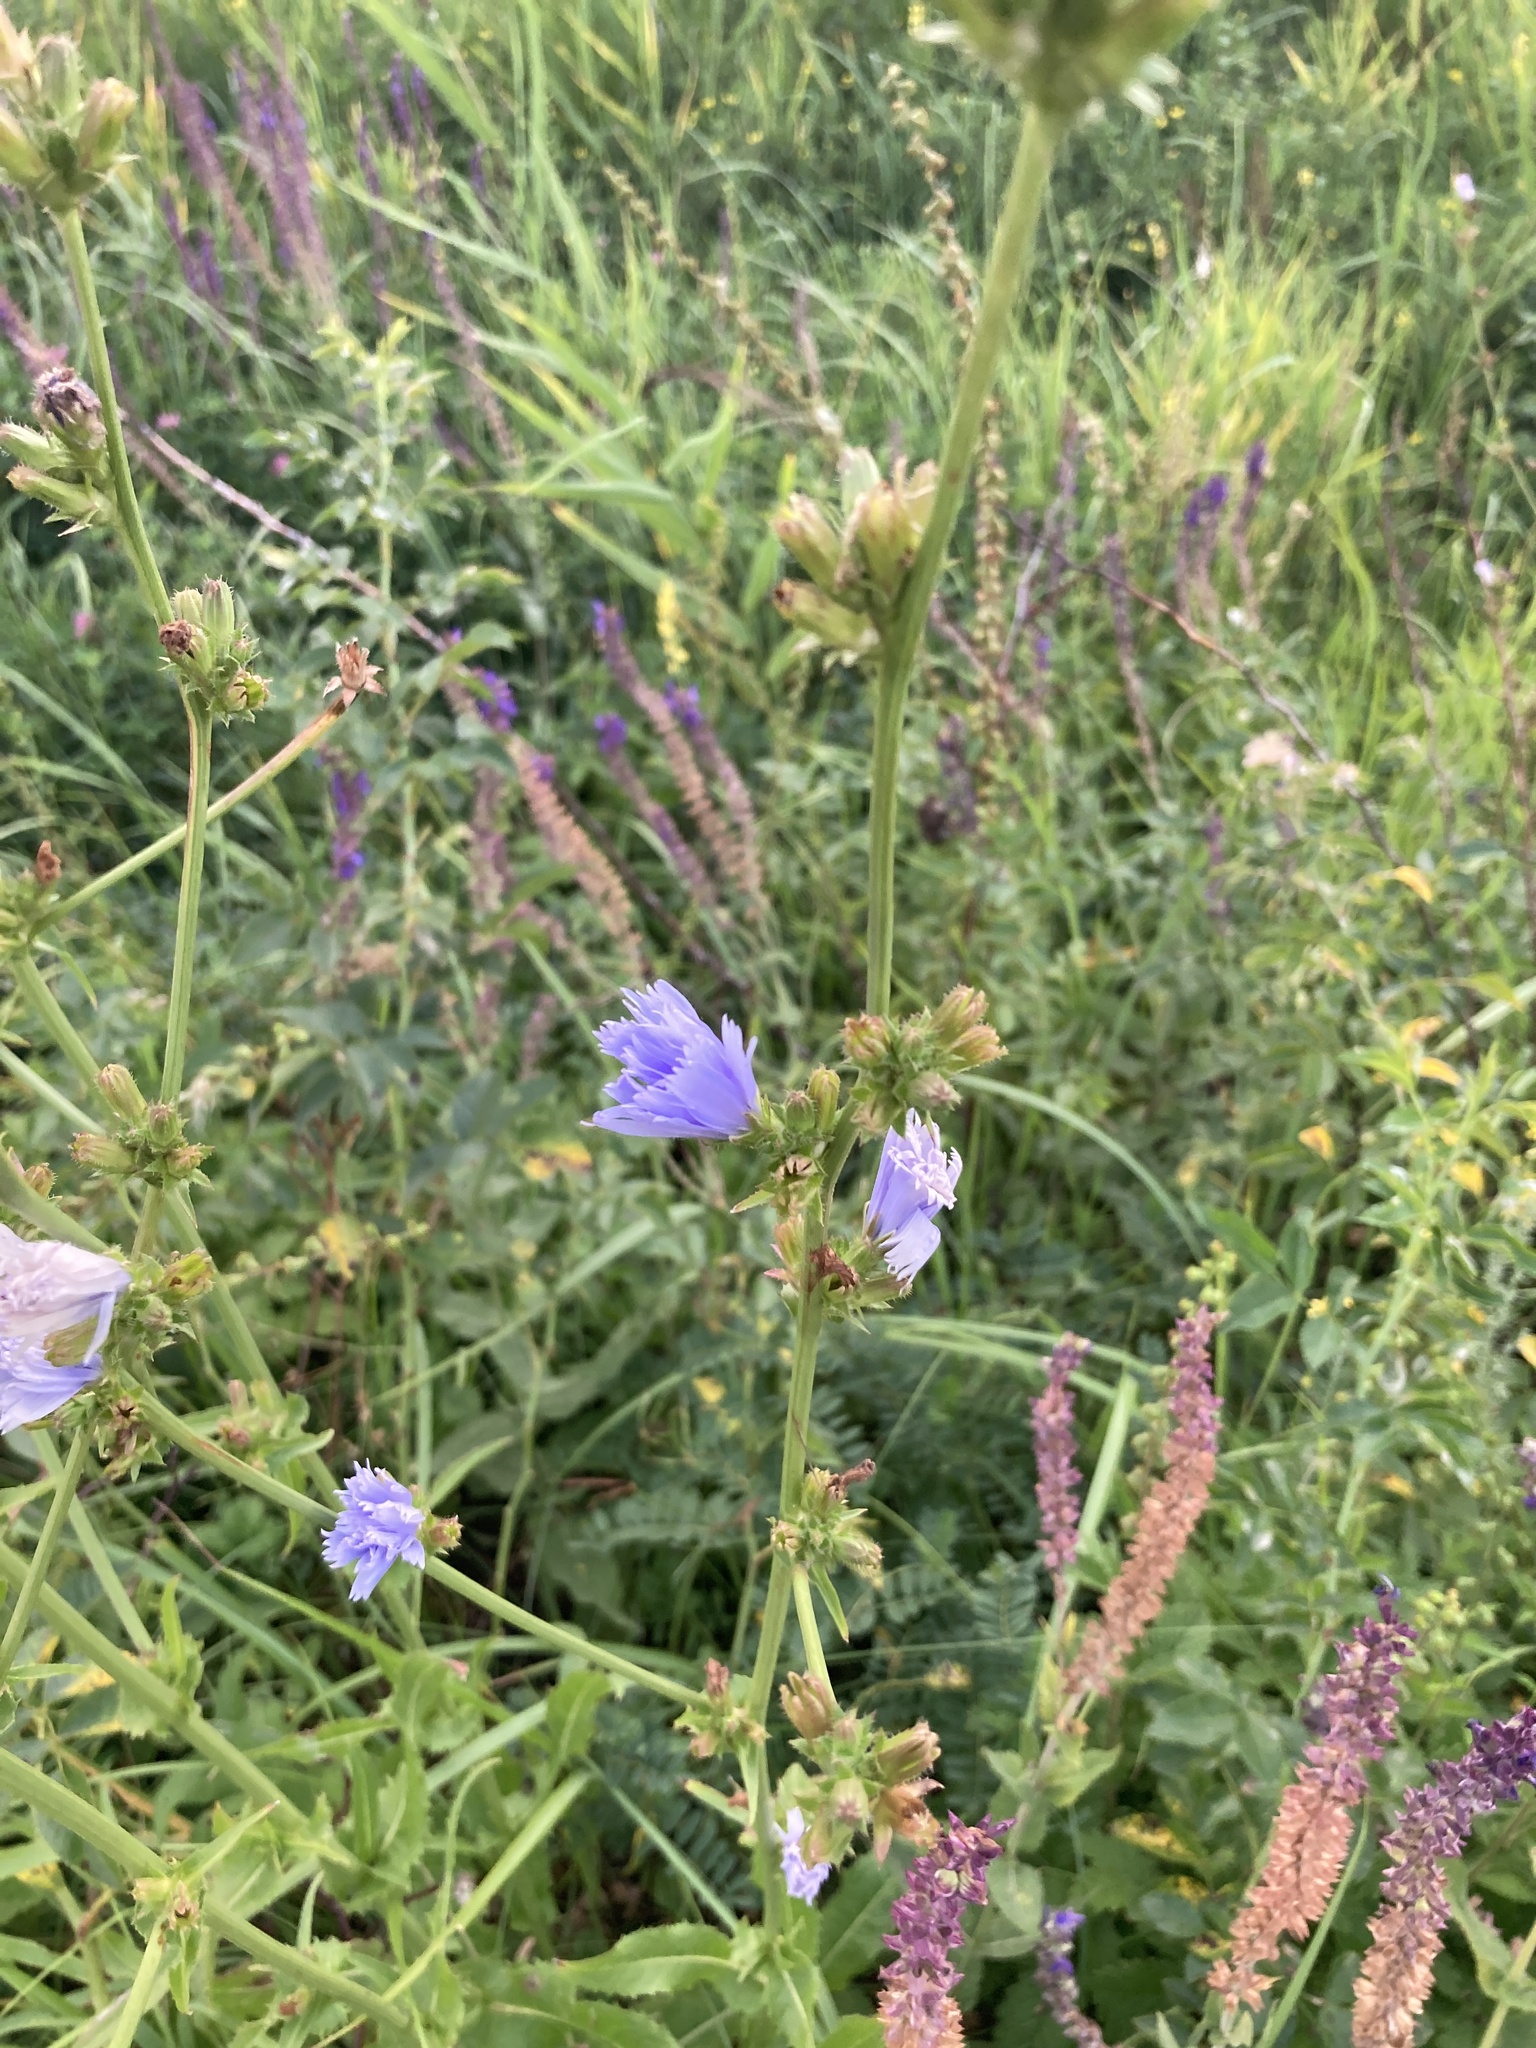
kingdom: Plantae
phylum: Tracheophyta
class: Magnoliopsida
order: Asterales
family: Asteraceae
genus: Cichorium
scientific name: Cichorium intybus
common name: Chicory
